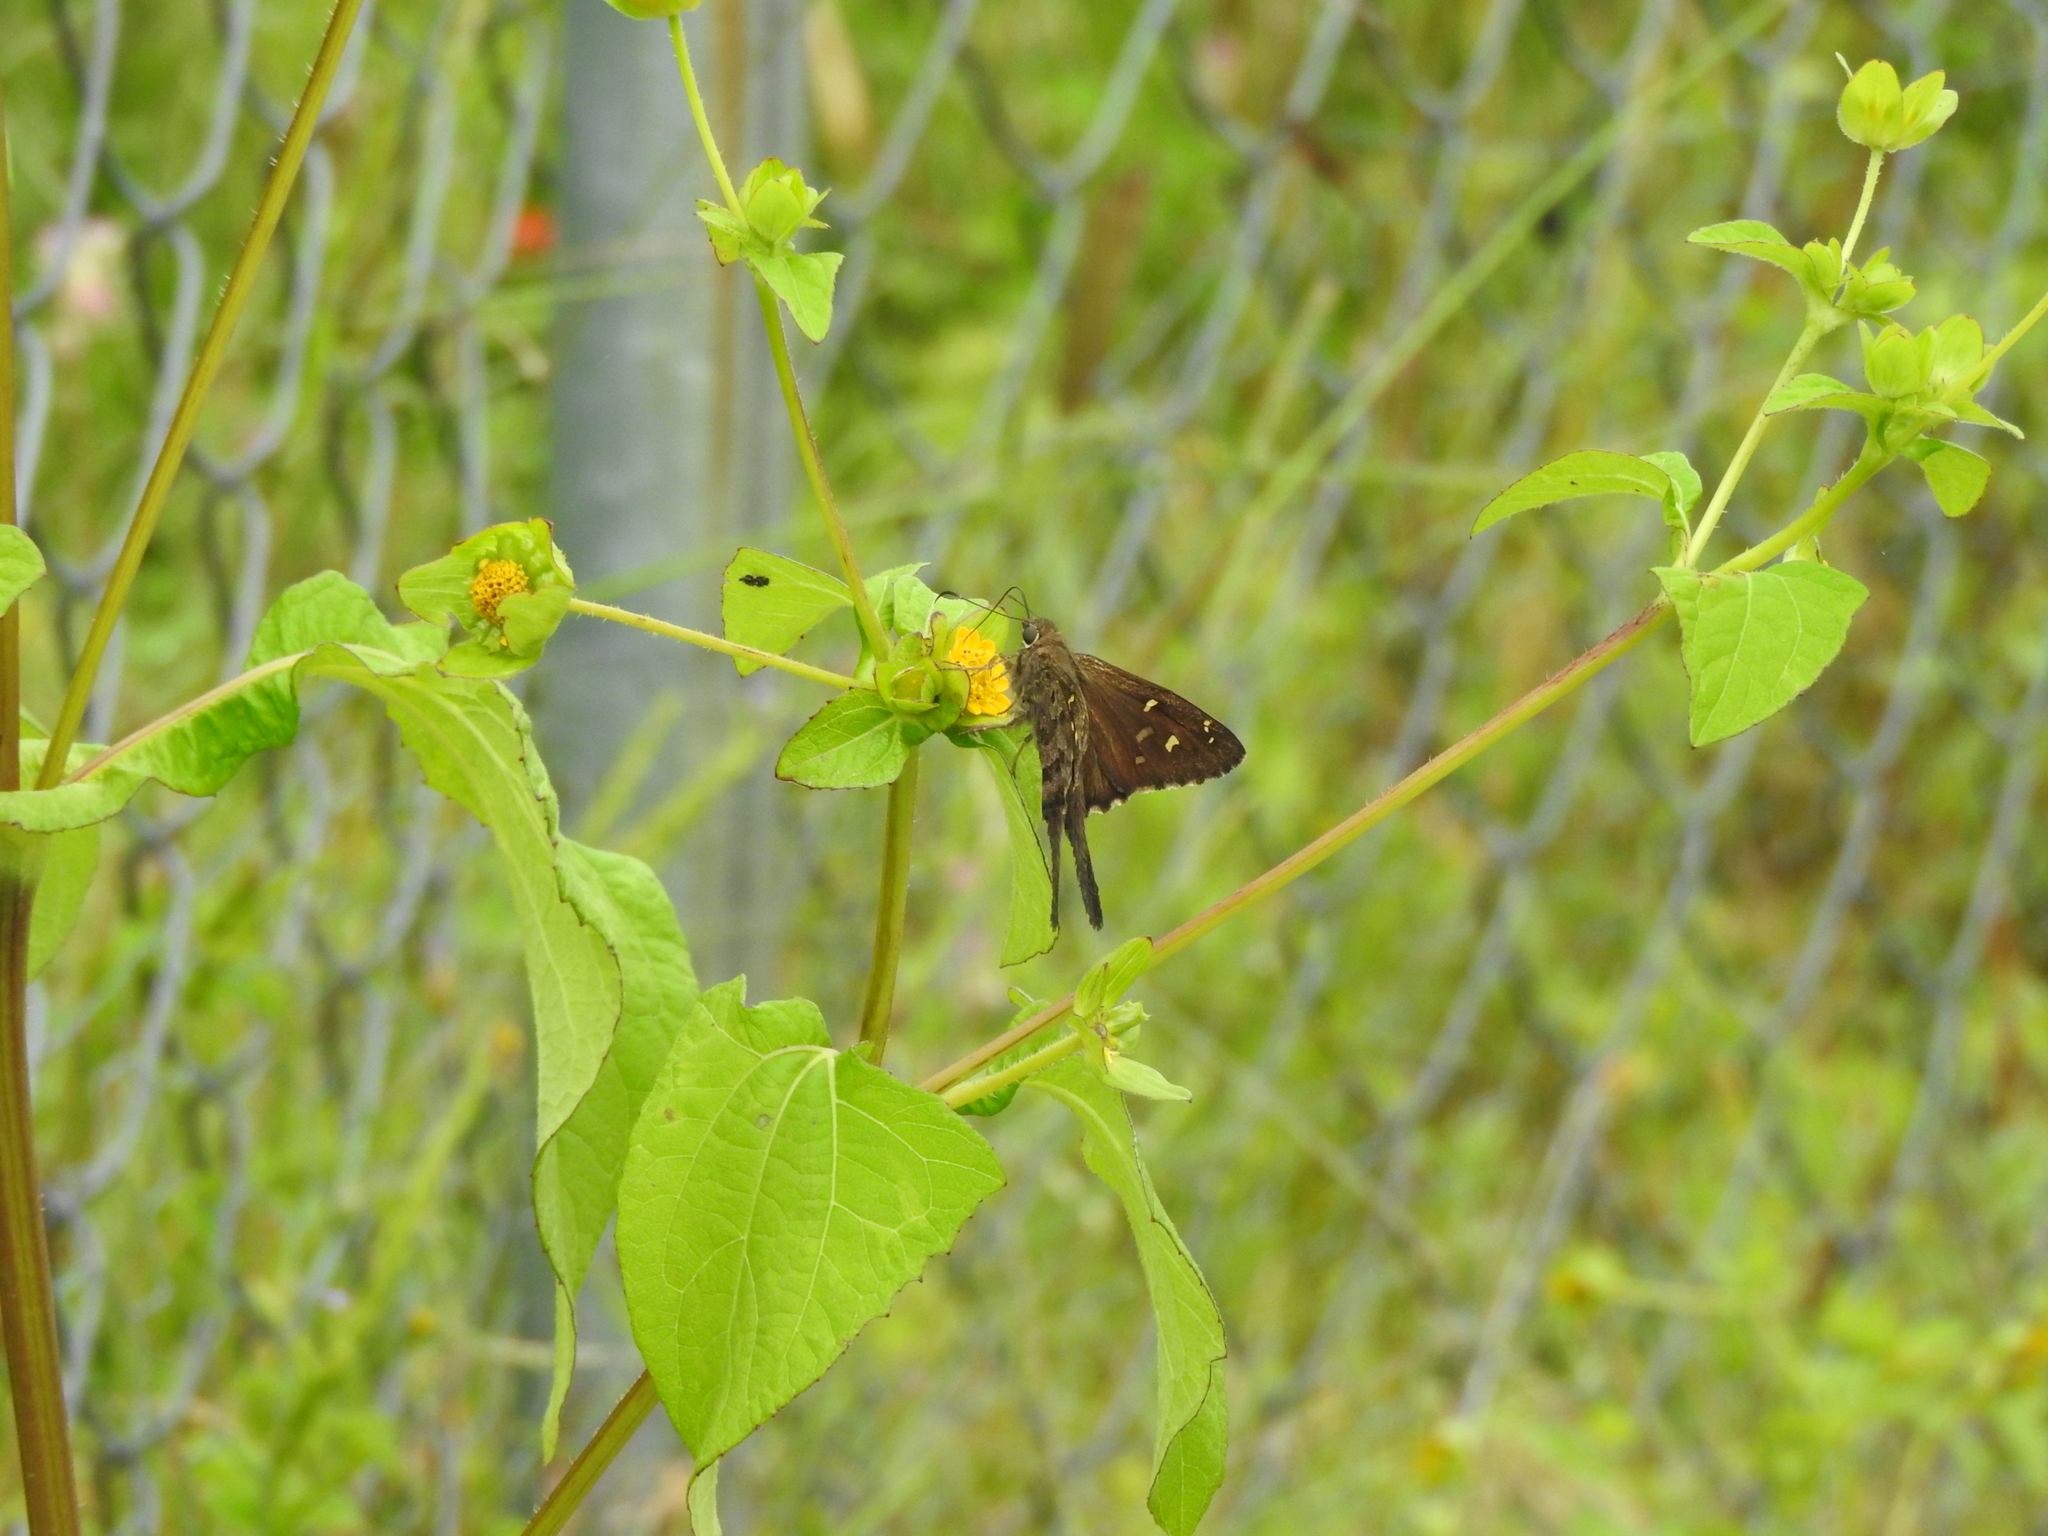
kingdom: Animalia
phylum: Arthropoda
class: Insecta
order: Lepidoptera
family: Hesperiidae
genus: Thorybes
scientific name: Thorybes
